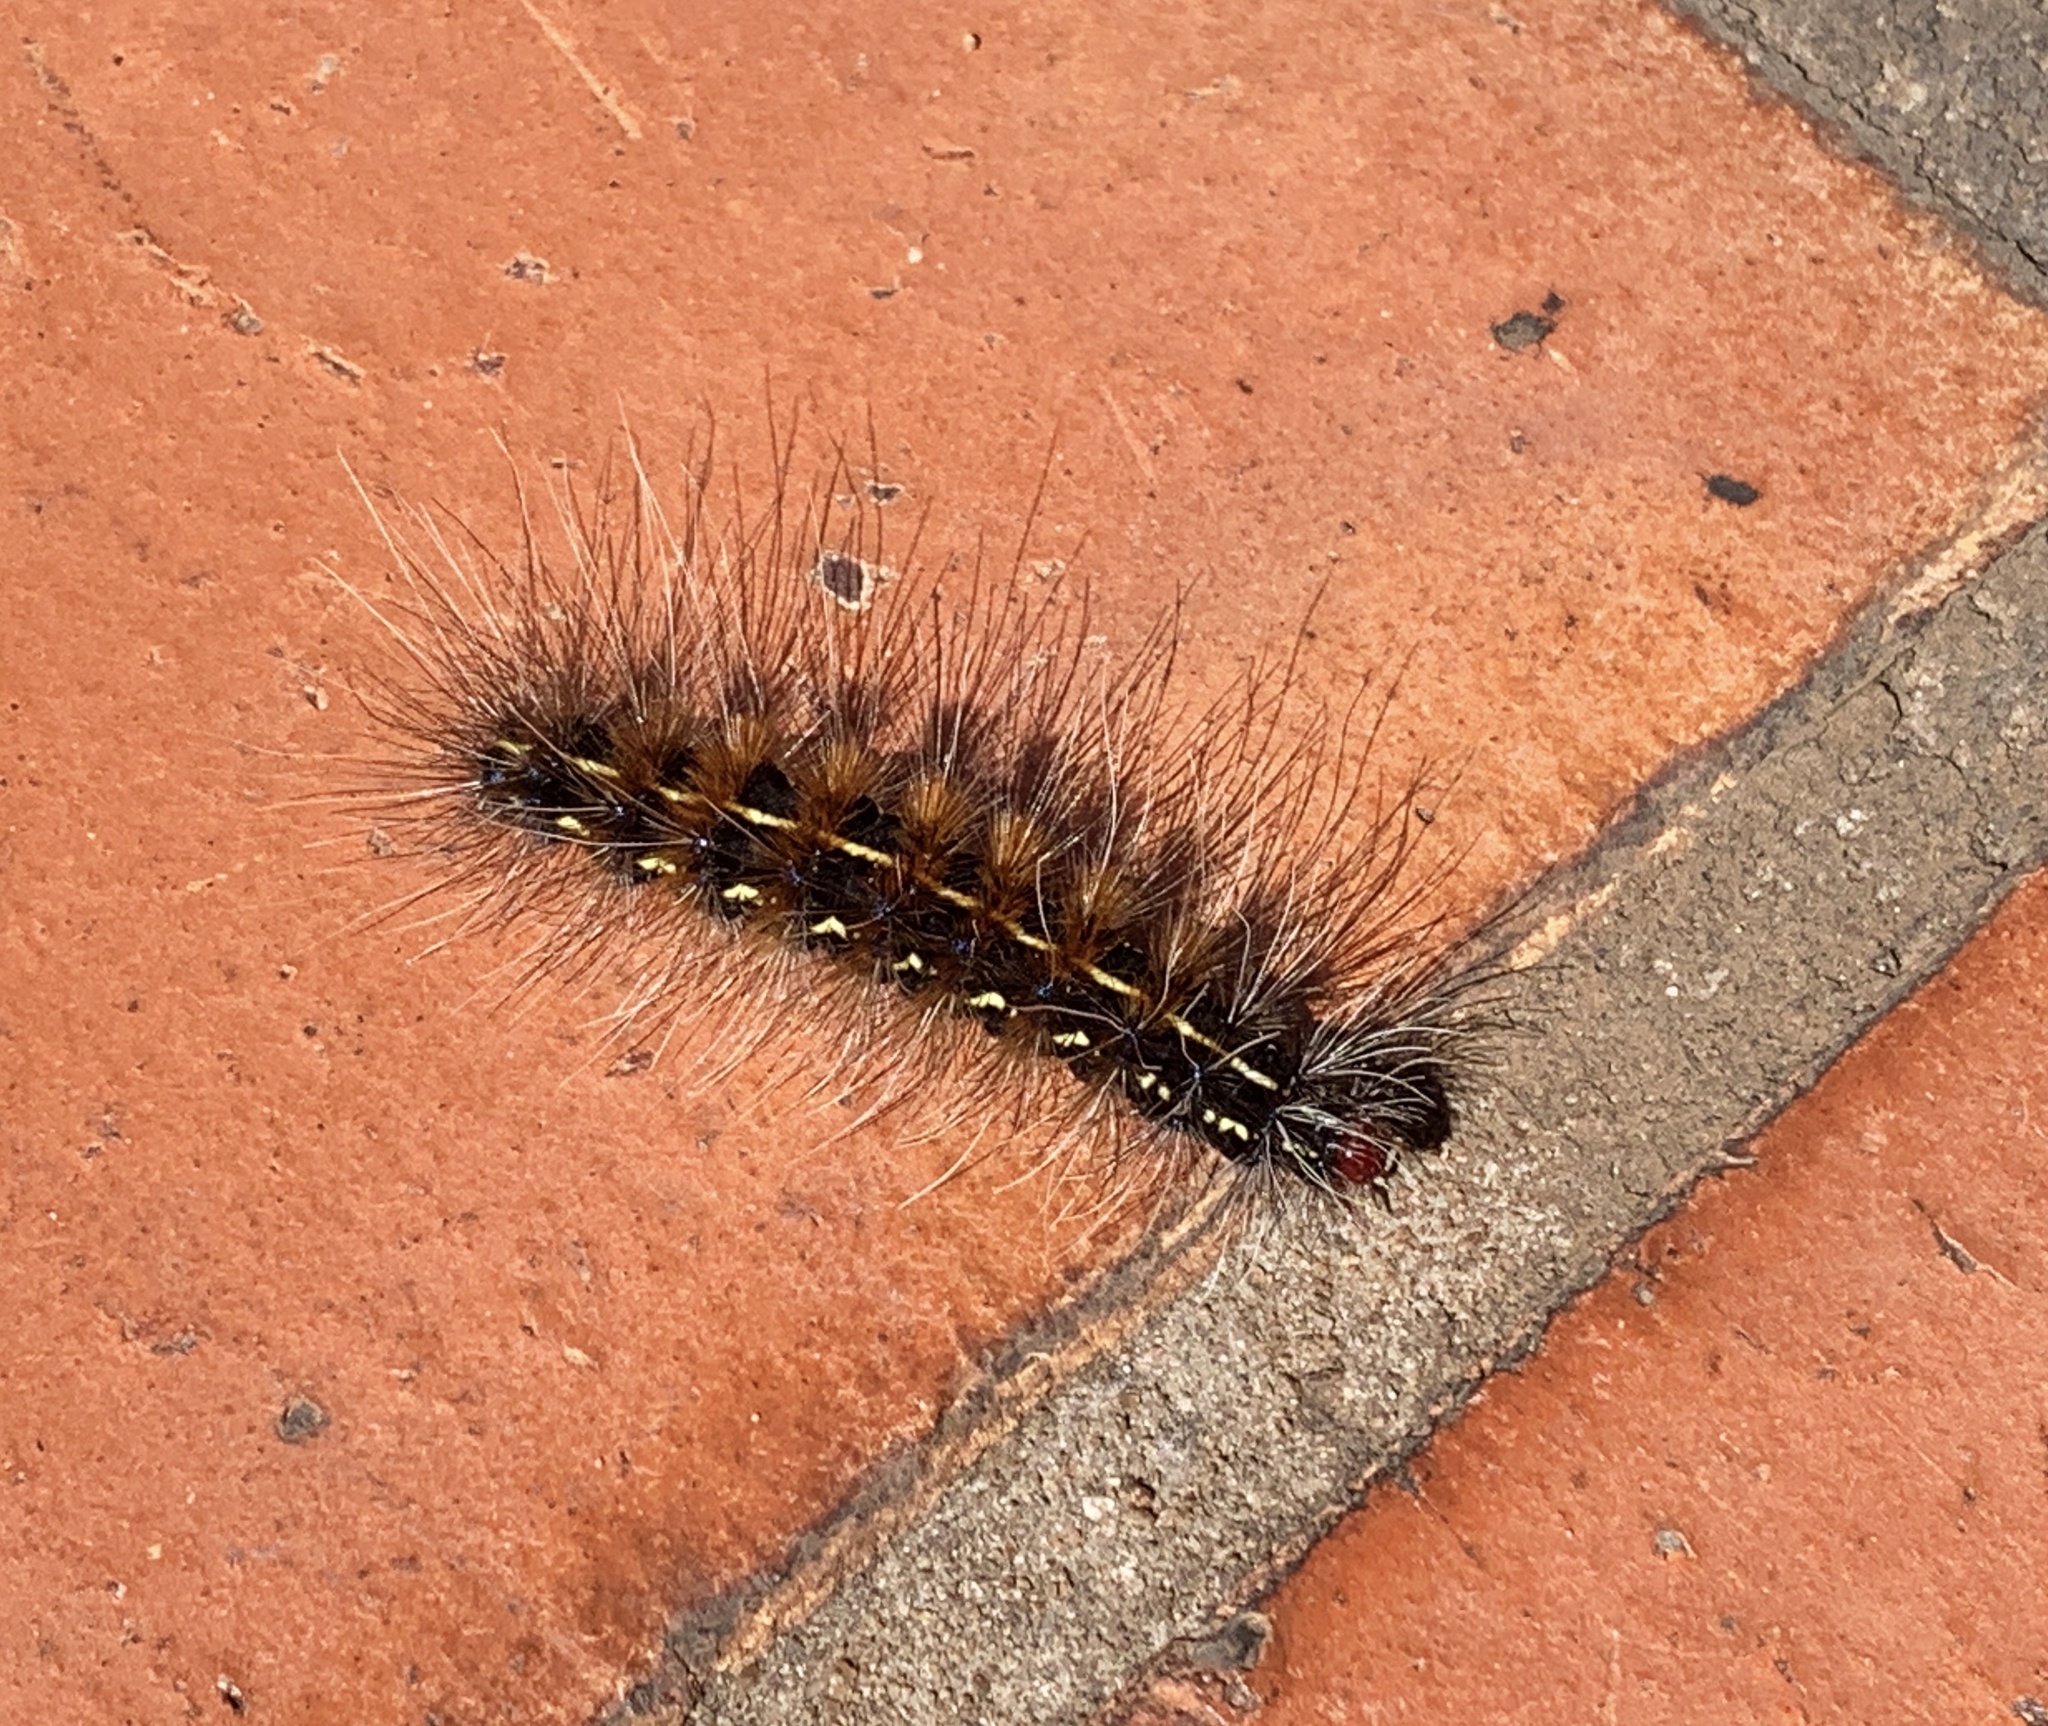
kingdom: Animalia
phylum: Arthropoda
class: Insecta
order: Lepidoptera
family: Erebidae
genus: Leucaloa
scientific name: Leucaloa eugraphica
